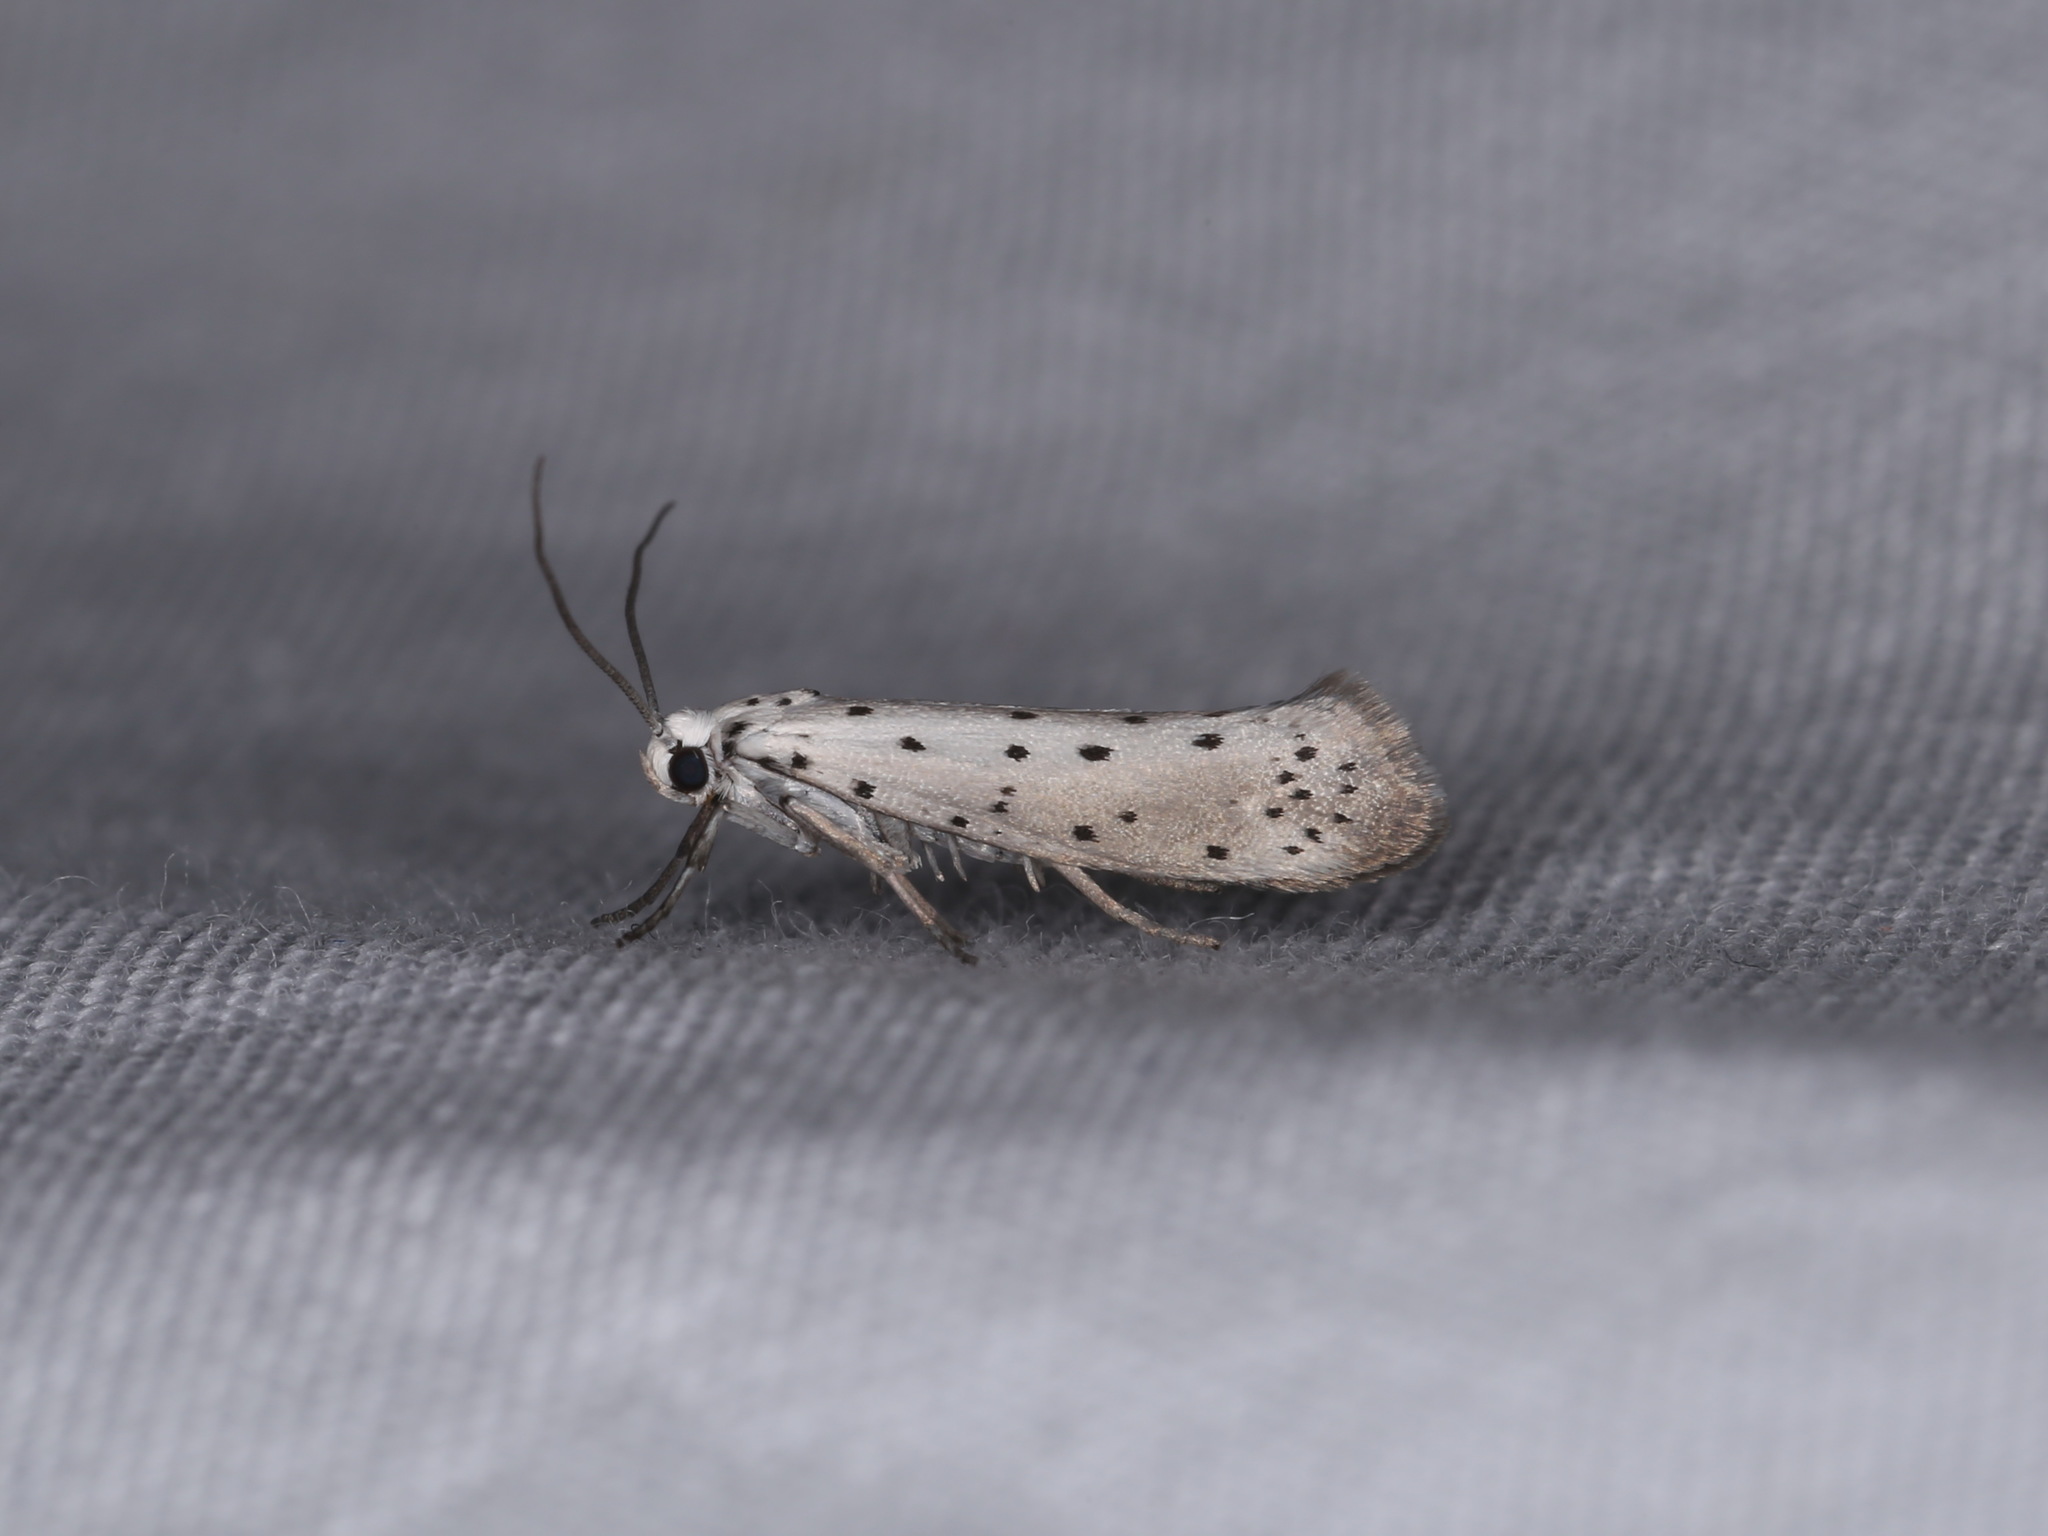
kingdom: Animalia
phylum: Arthropoda
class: Insecta
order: Lepidoptera
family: Yponomeutidae
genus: Yponomeuta
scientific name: Yponomeuta padella
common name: Orchard ermine
